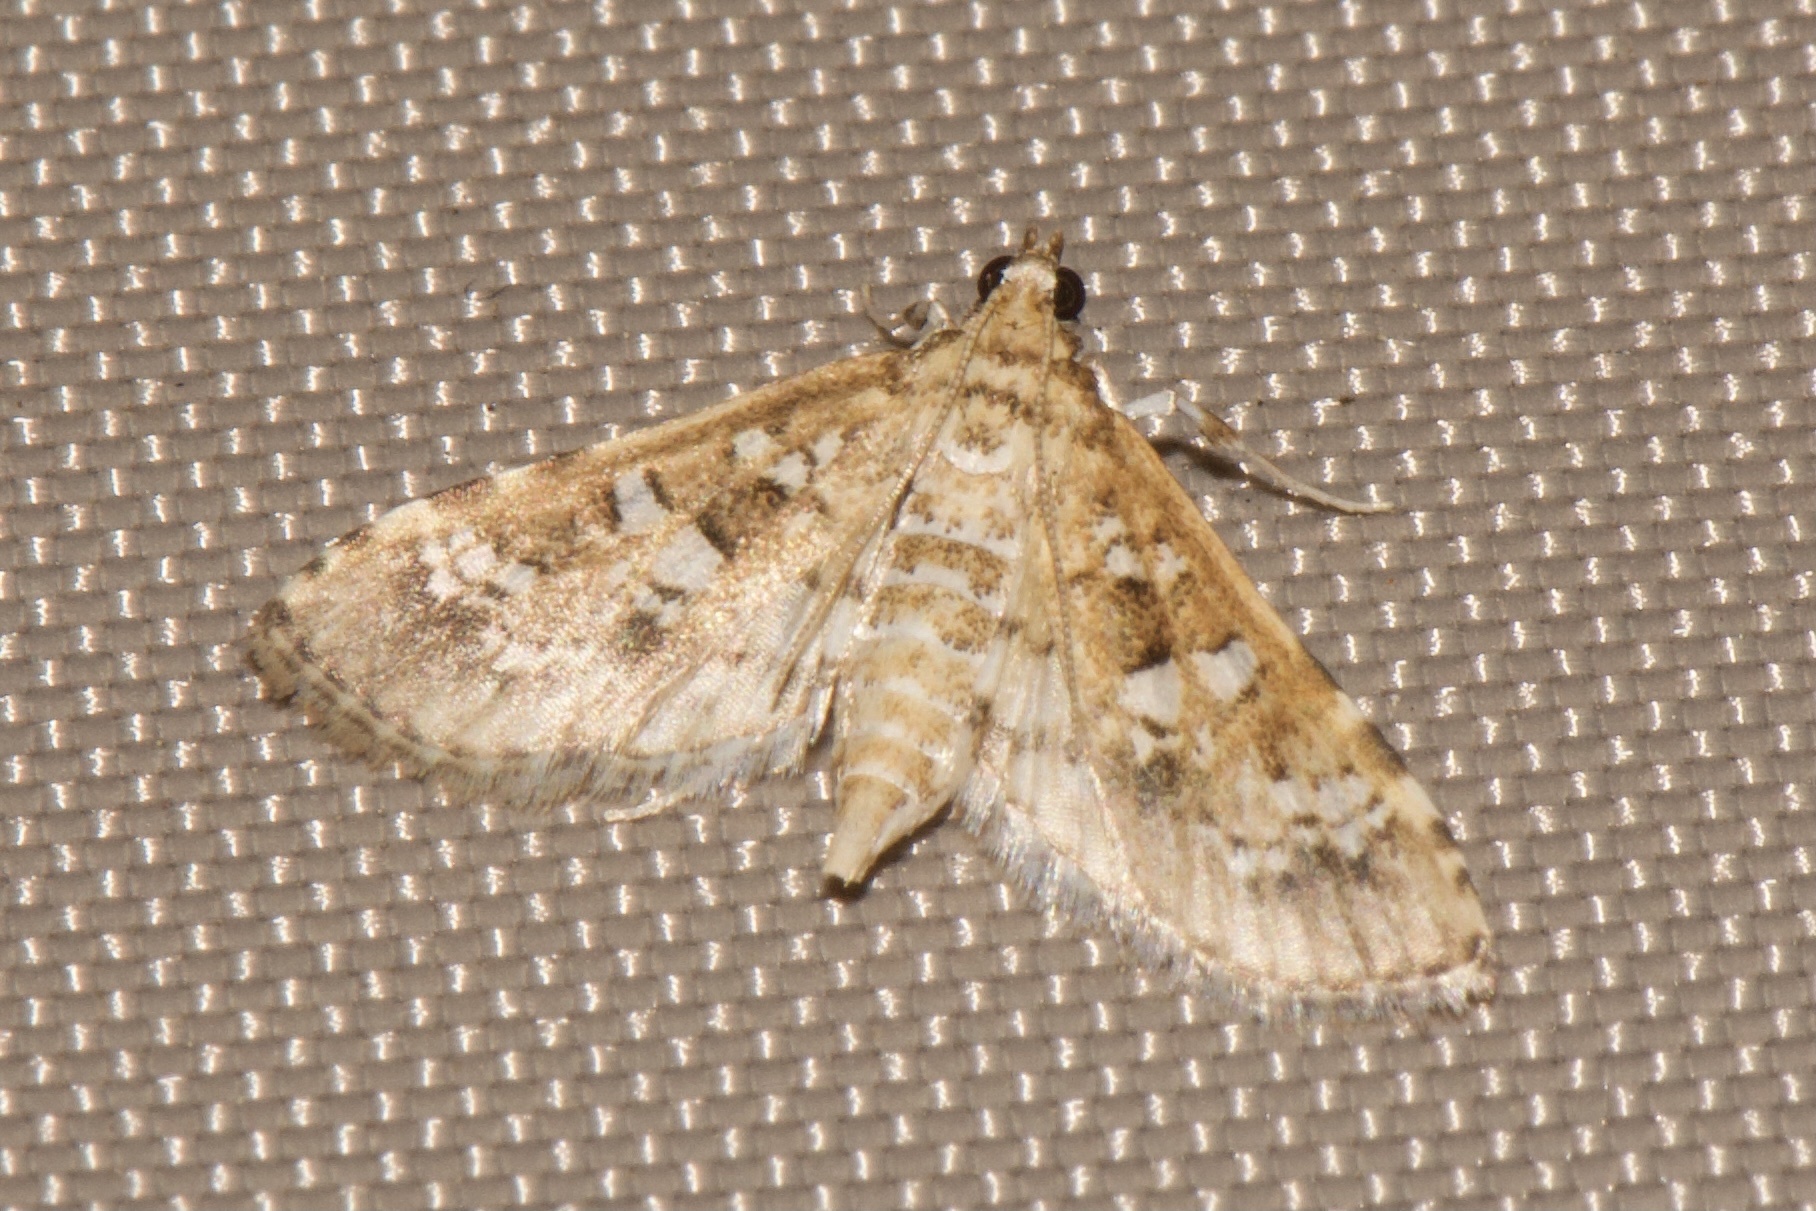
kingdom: Animalia
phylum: Arthropoda
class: Insecta
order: Lepidoptera
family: Crambidae
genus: Samea
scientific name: Samea multiplicalis
